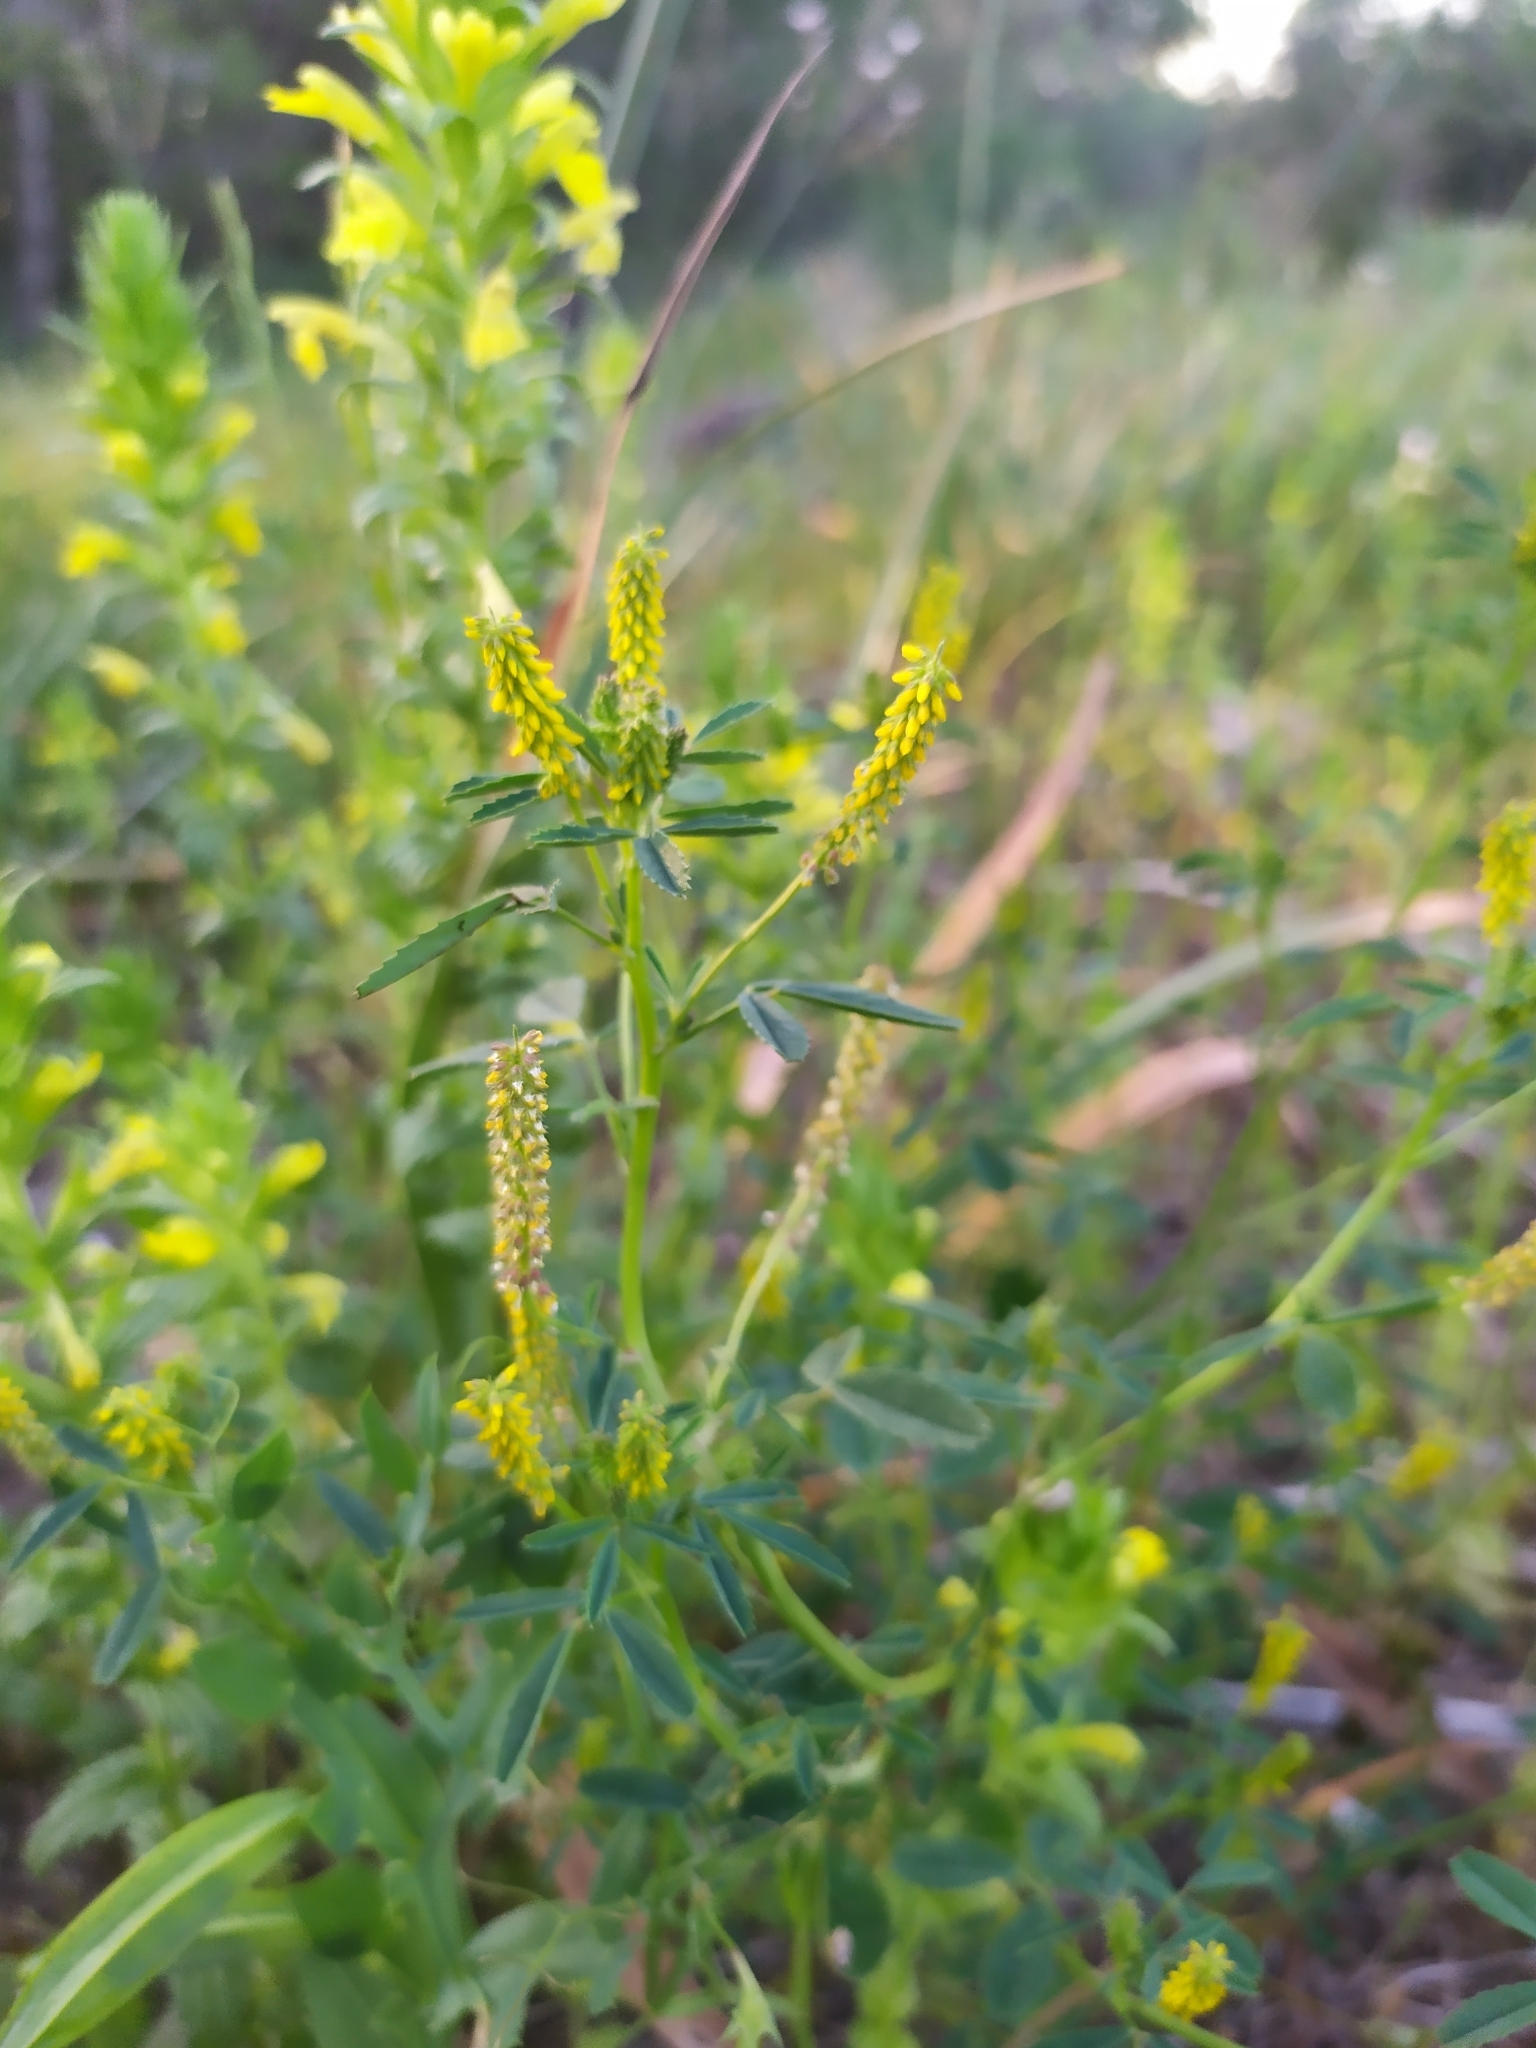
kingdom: Plantae
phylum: Tracheophyta
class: Magnoliopsida
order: Fabales
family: Fabaceae
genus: Melilotus
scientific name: Melilotus indicus
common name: Small melilot
